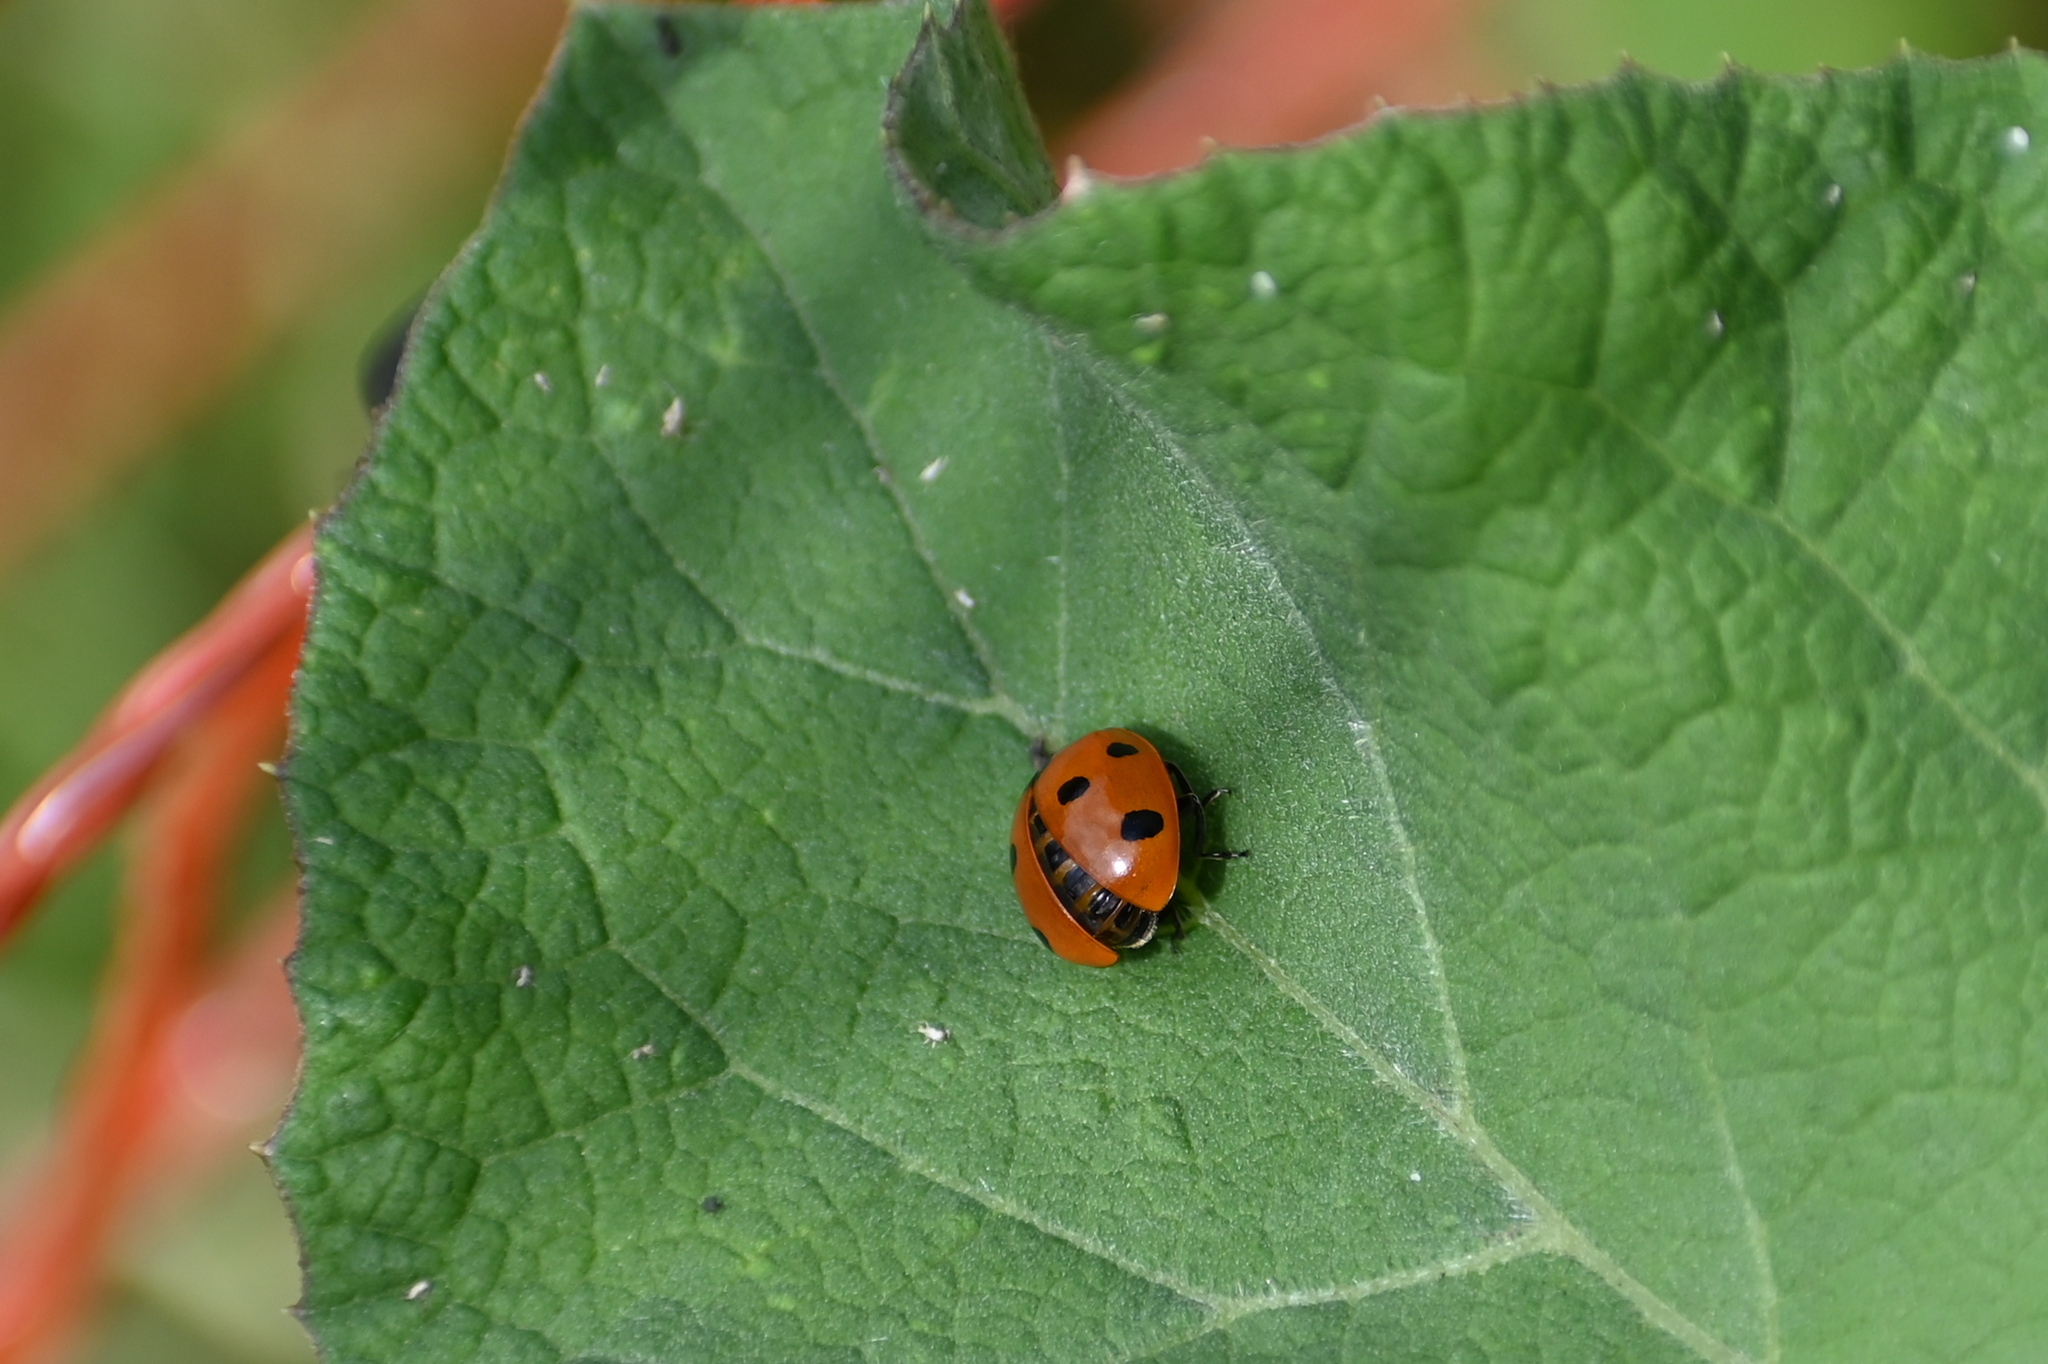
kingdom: Animalia
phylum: Arthropoda
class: Insecta
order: Coleoptera
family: Coccinellidae
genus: Coccinella
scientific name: Coccinella septempunctata
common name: Sevenspotted lady beetle
